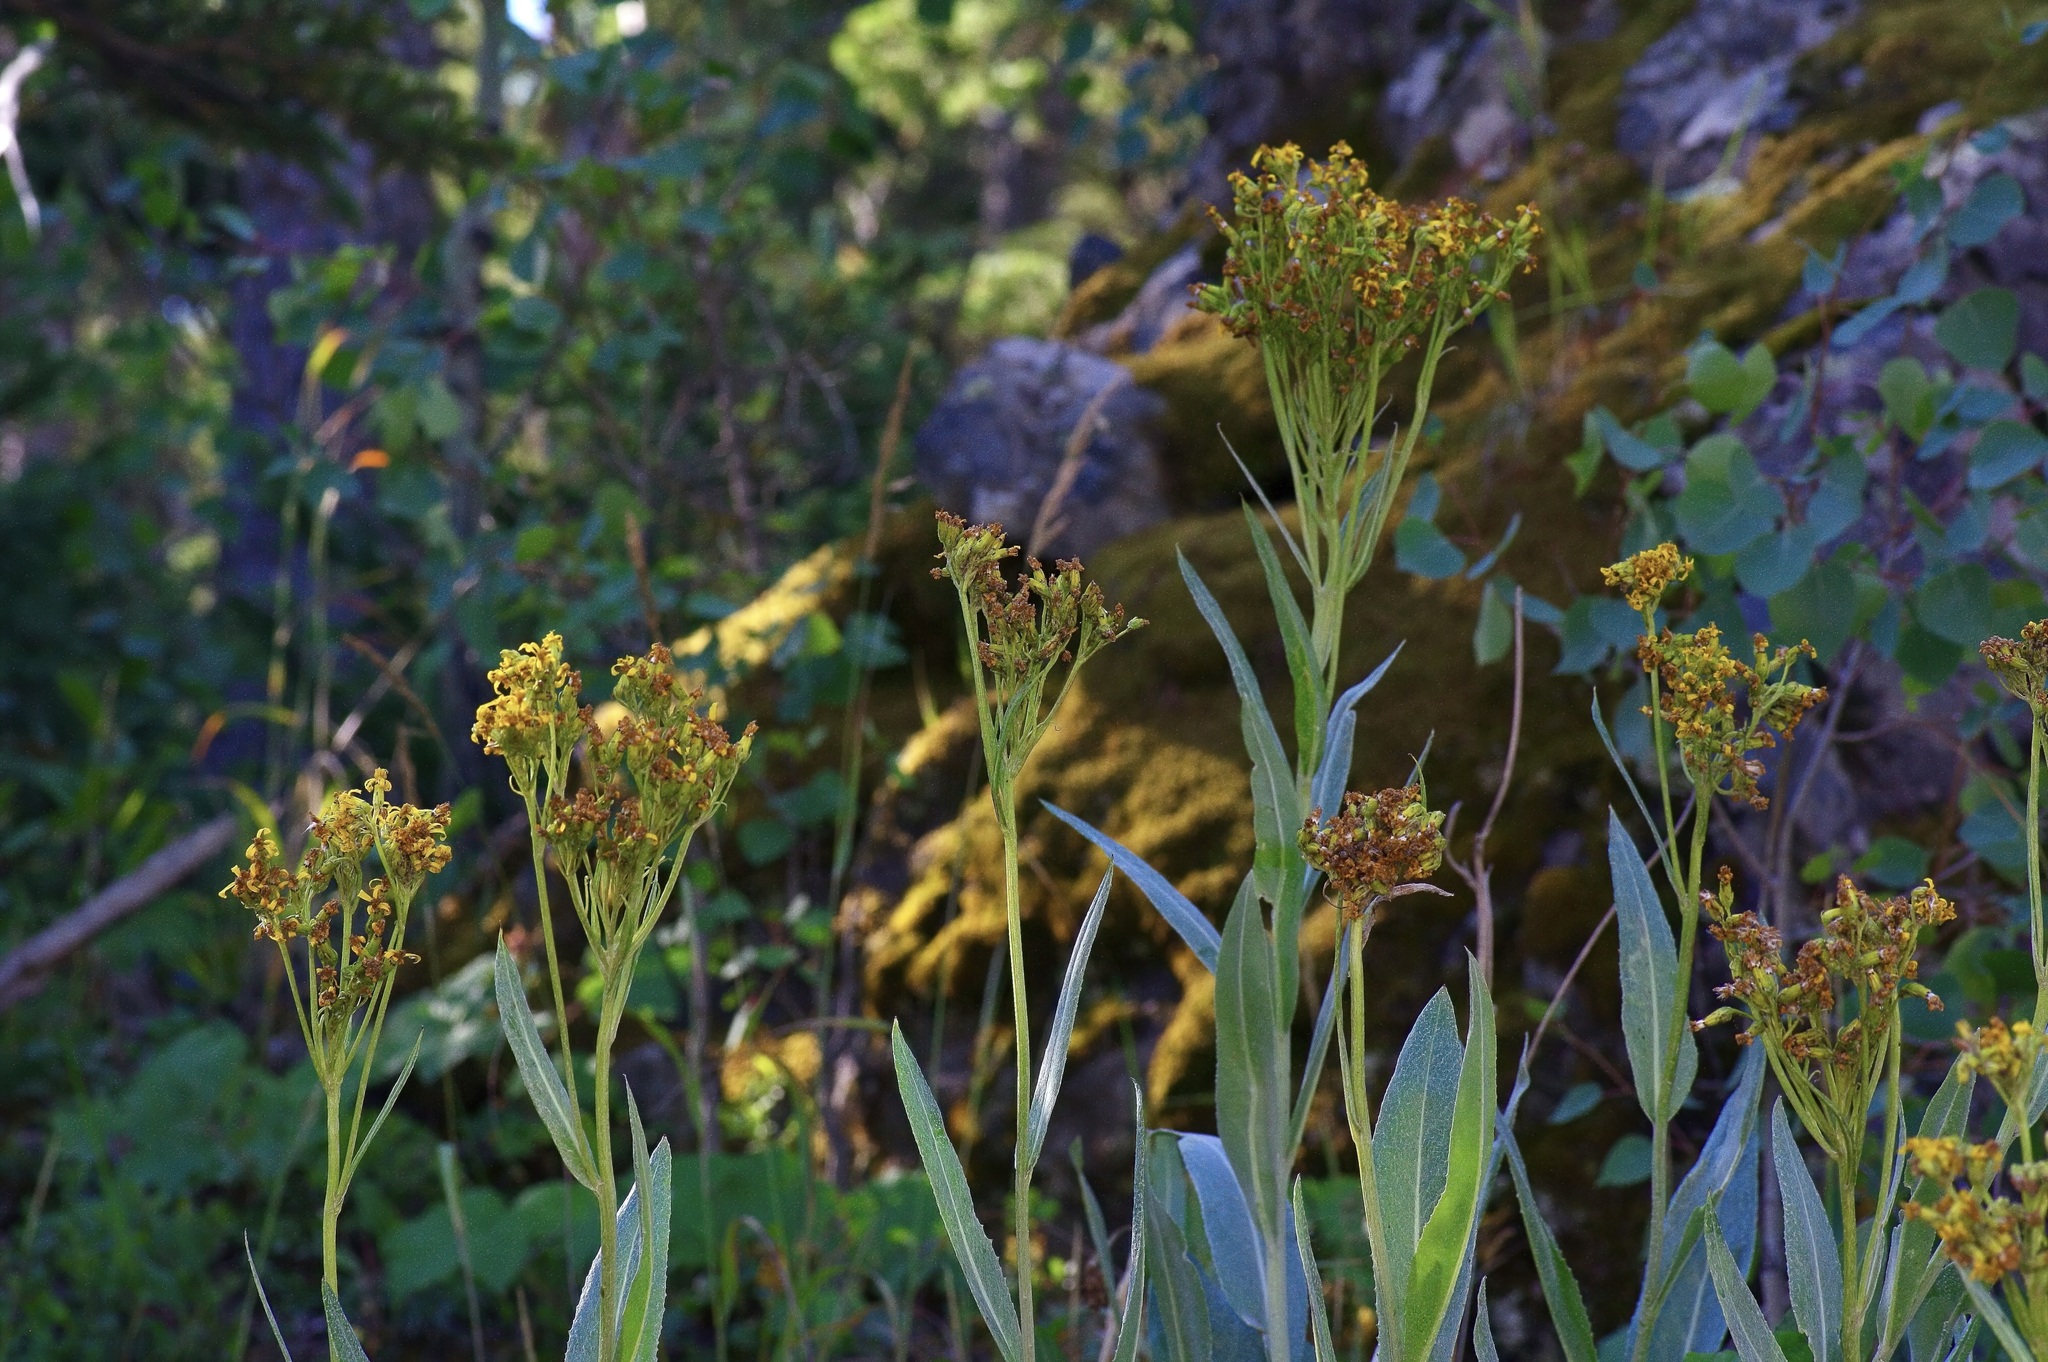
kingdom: Plantae
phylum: Tracheophyta
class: Magnoliopsida
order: Asterales
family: Asteraceae
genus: Senecio
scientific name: Senecio atratus
